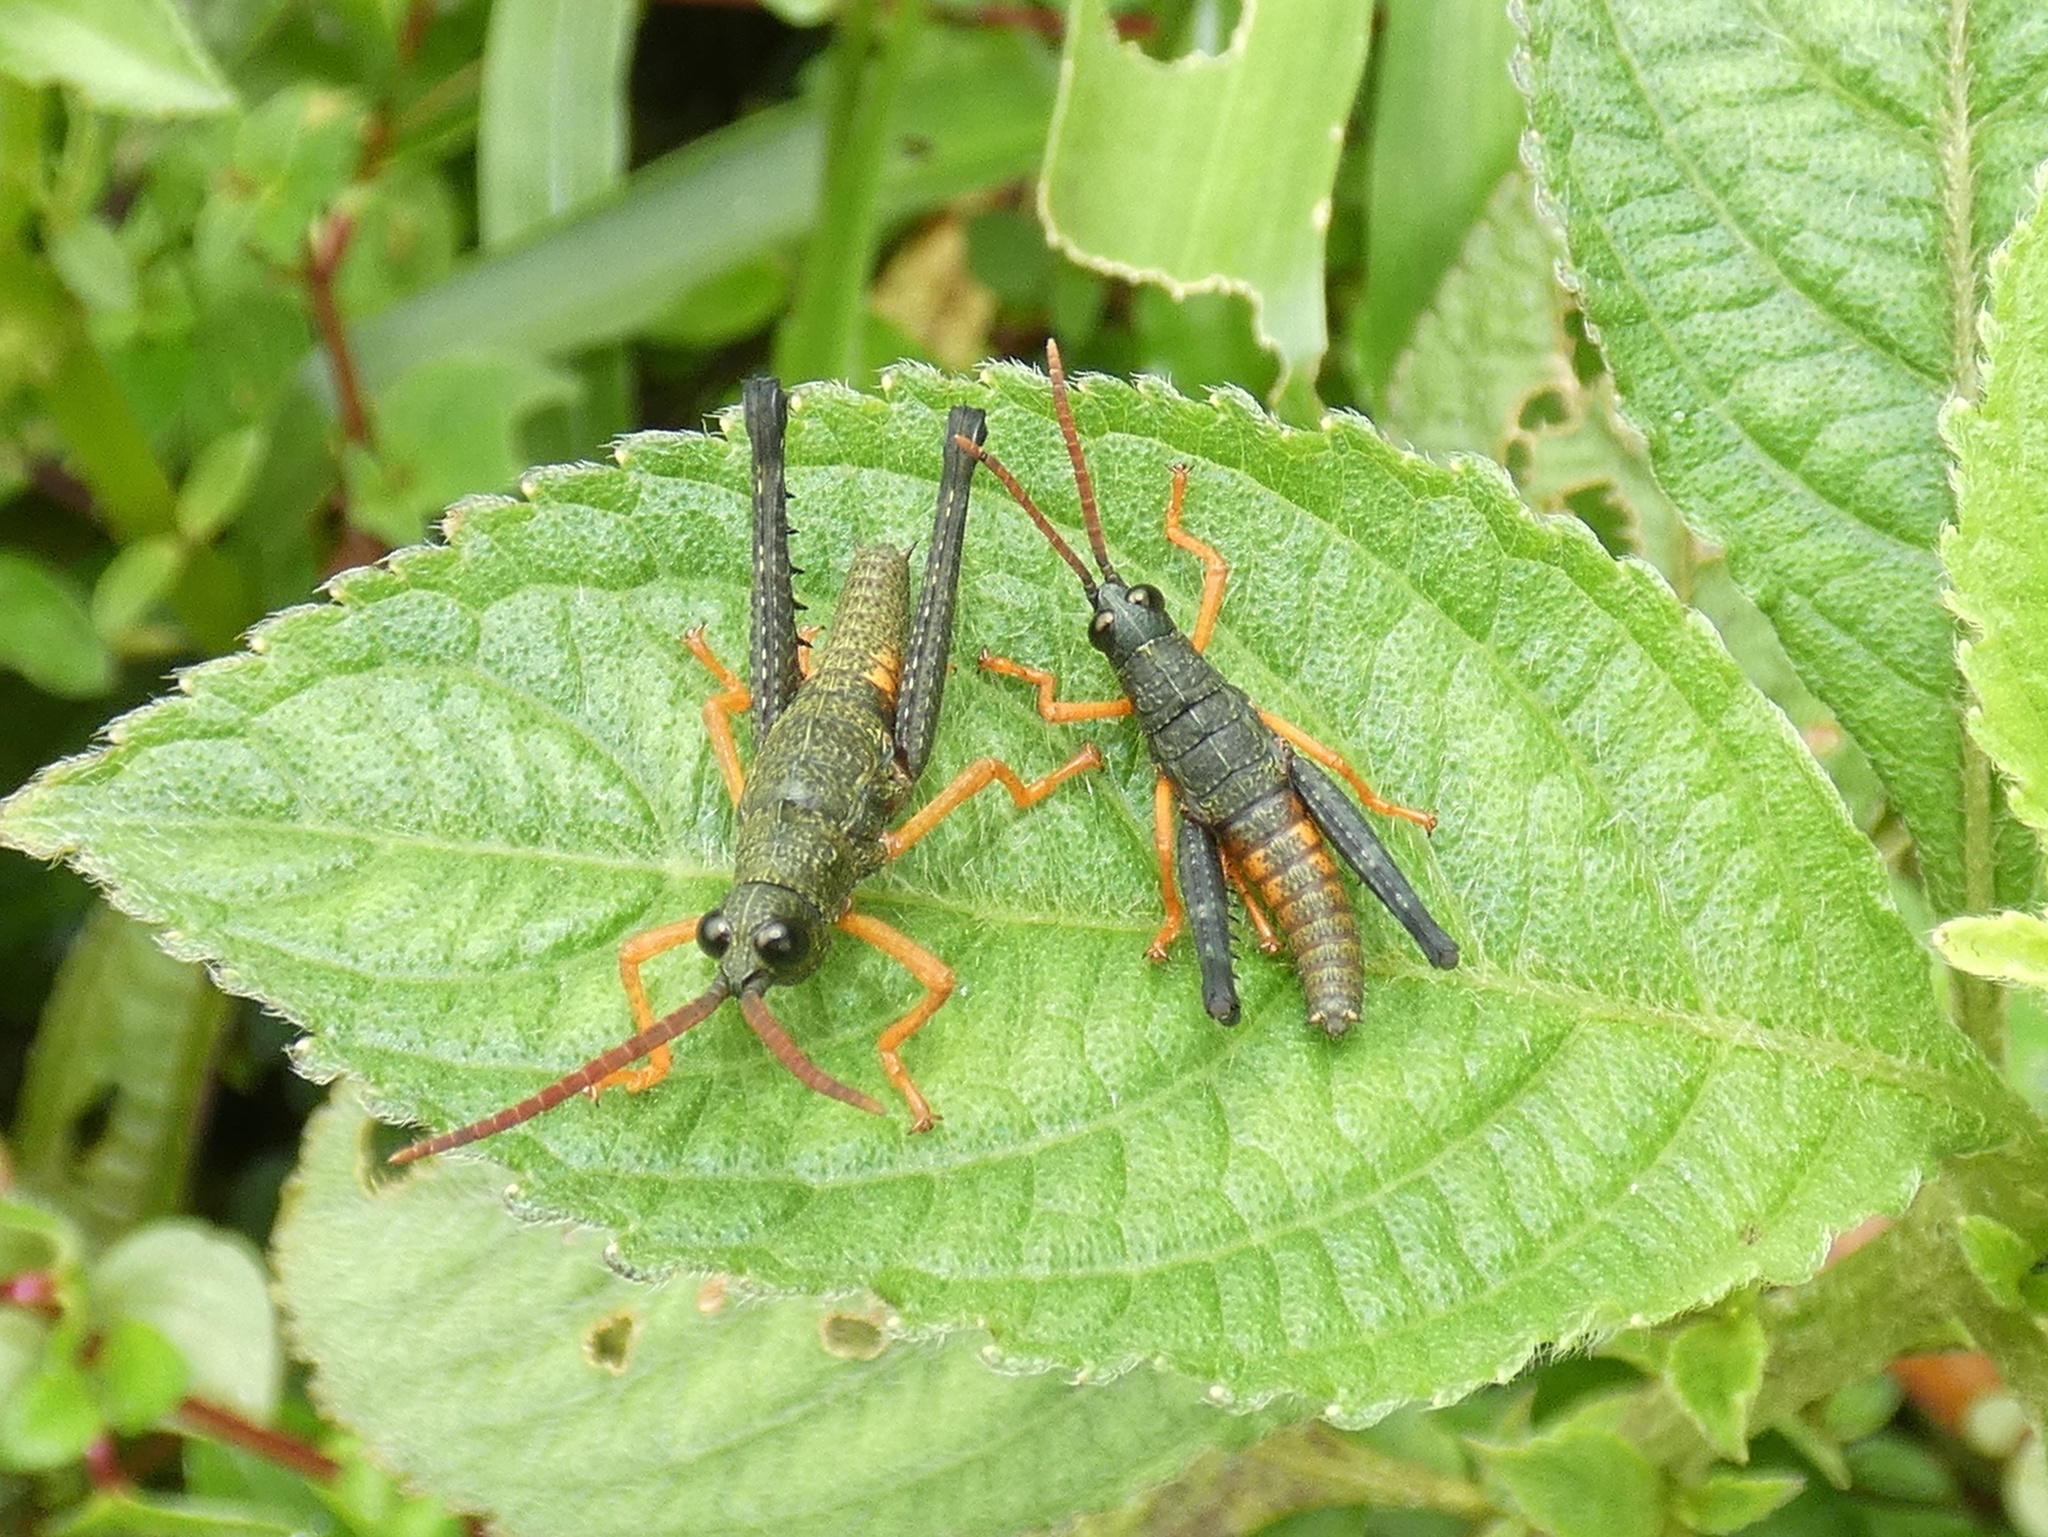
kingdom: Animalia
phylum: Arthropoda
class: Insecta
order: Orthoptera
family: Acrididae
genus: Piezops
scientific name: Piezops ensicornis
